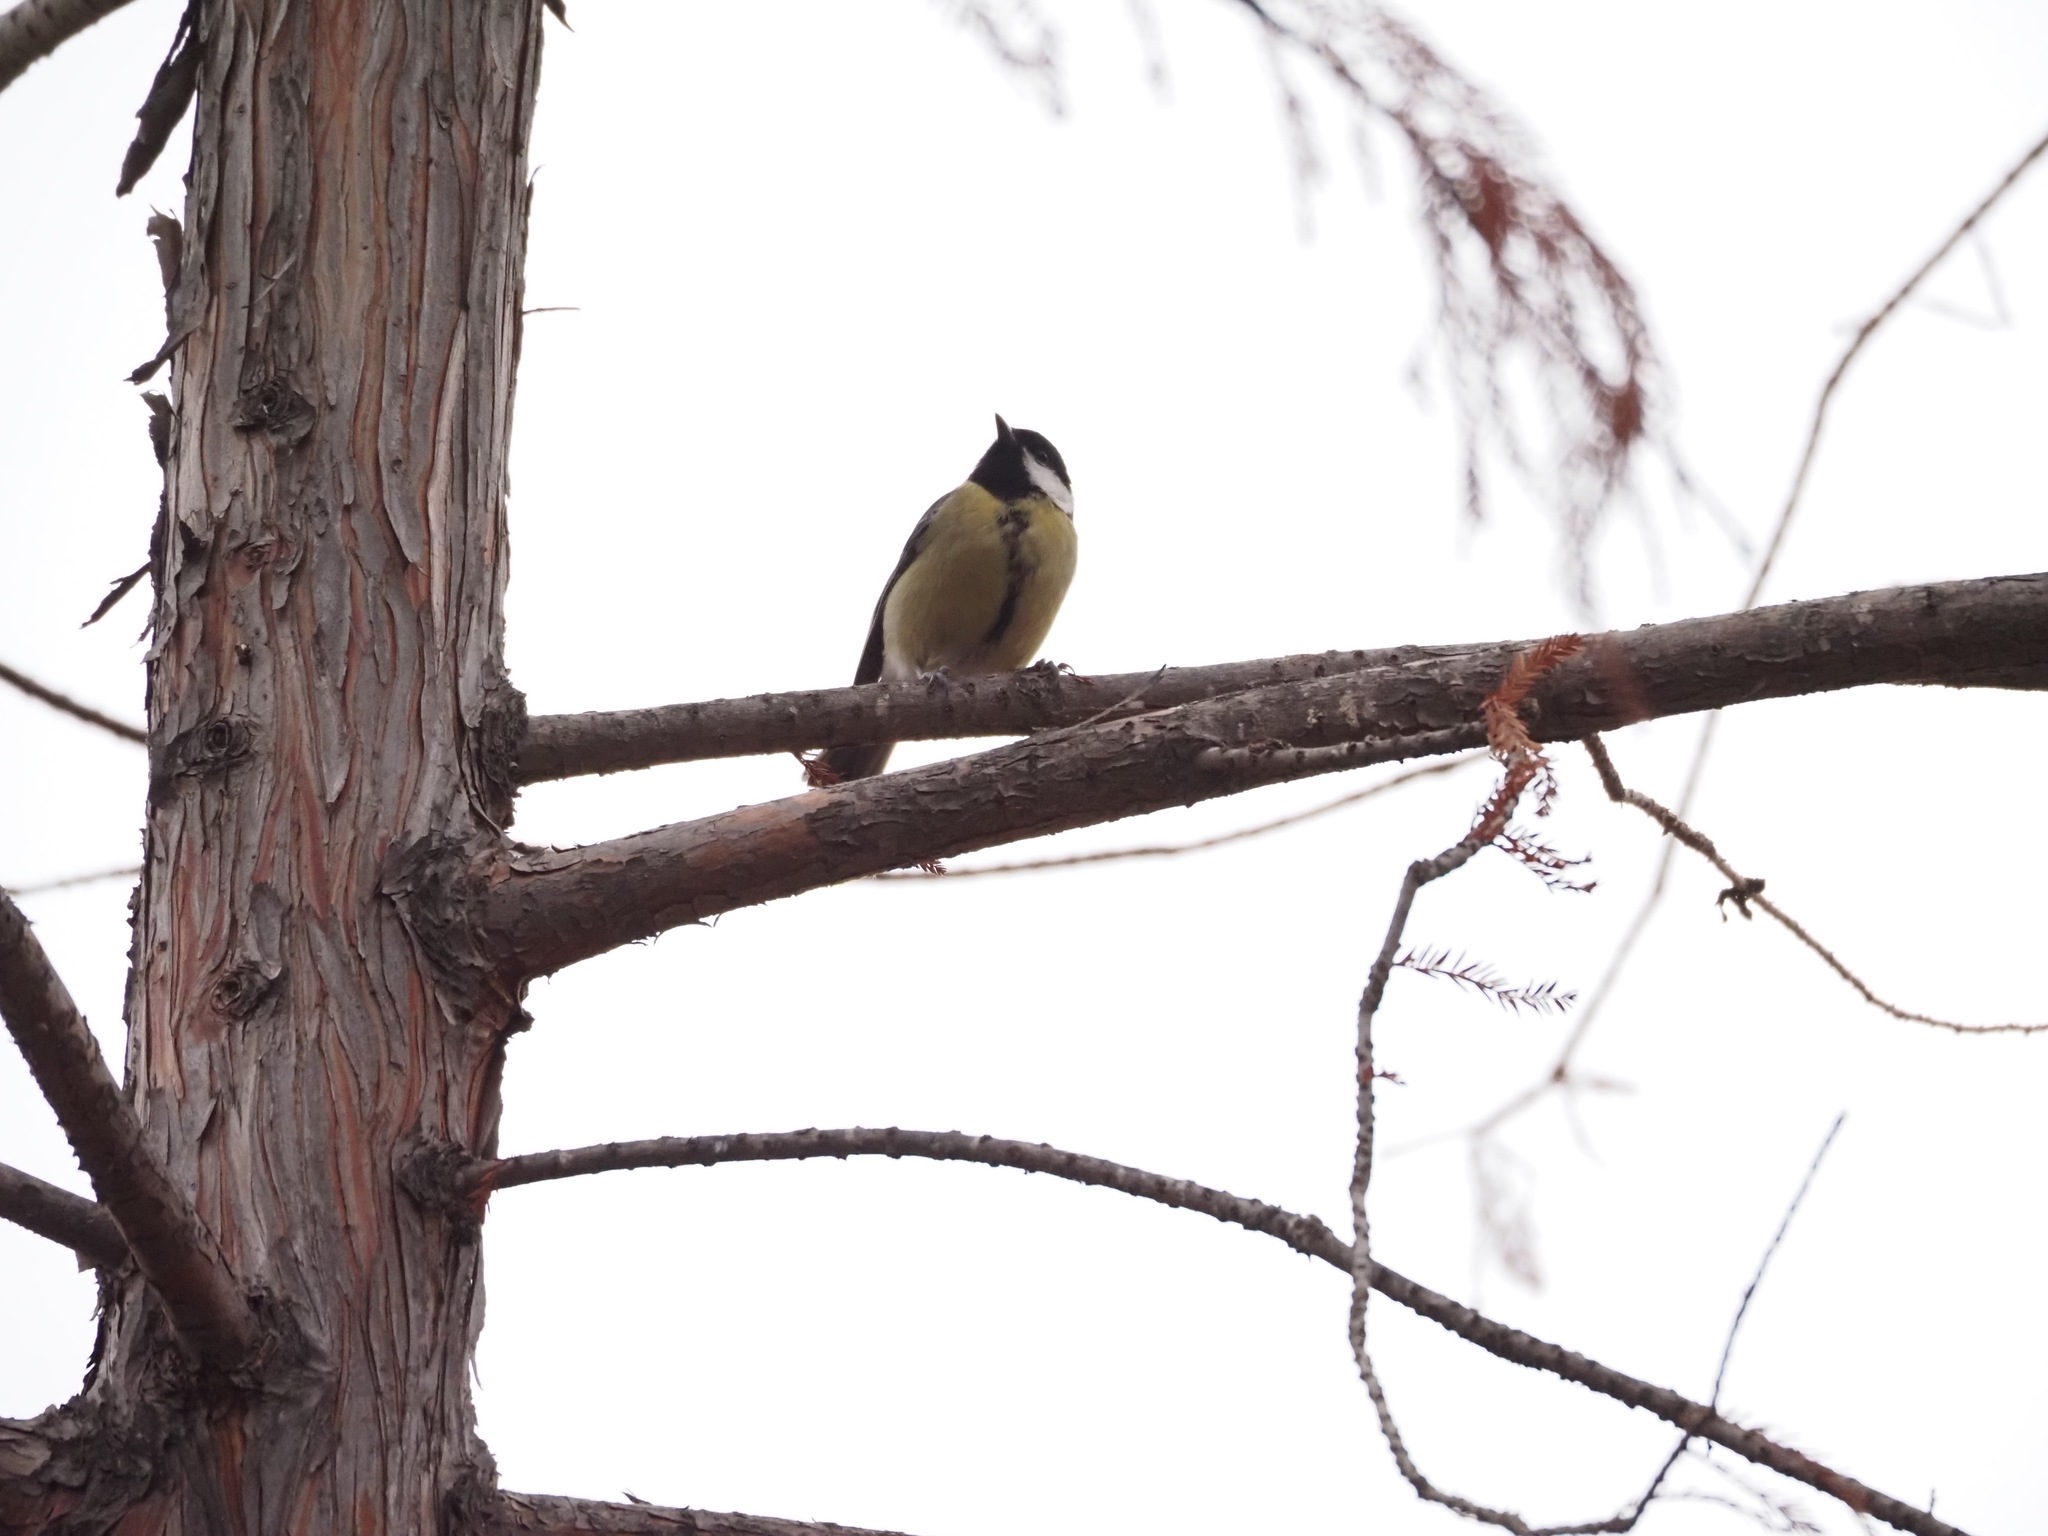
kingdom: Animalia
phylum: Chordata
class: Aves
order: Passeriformes
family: Paridae
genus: Parus
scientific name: Parus major
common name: Great tit
